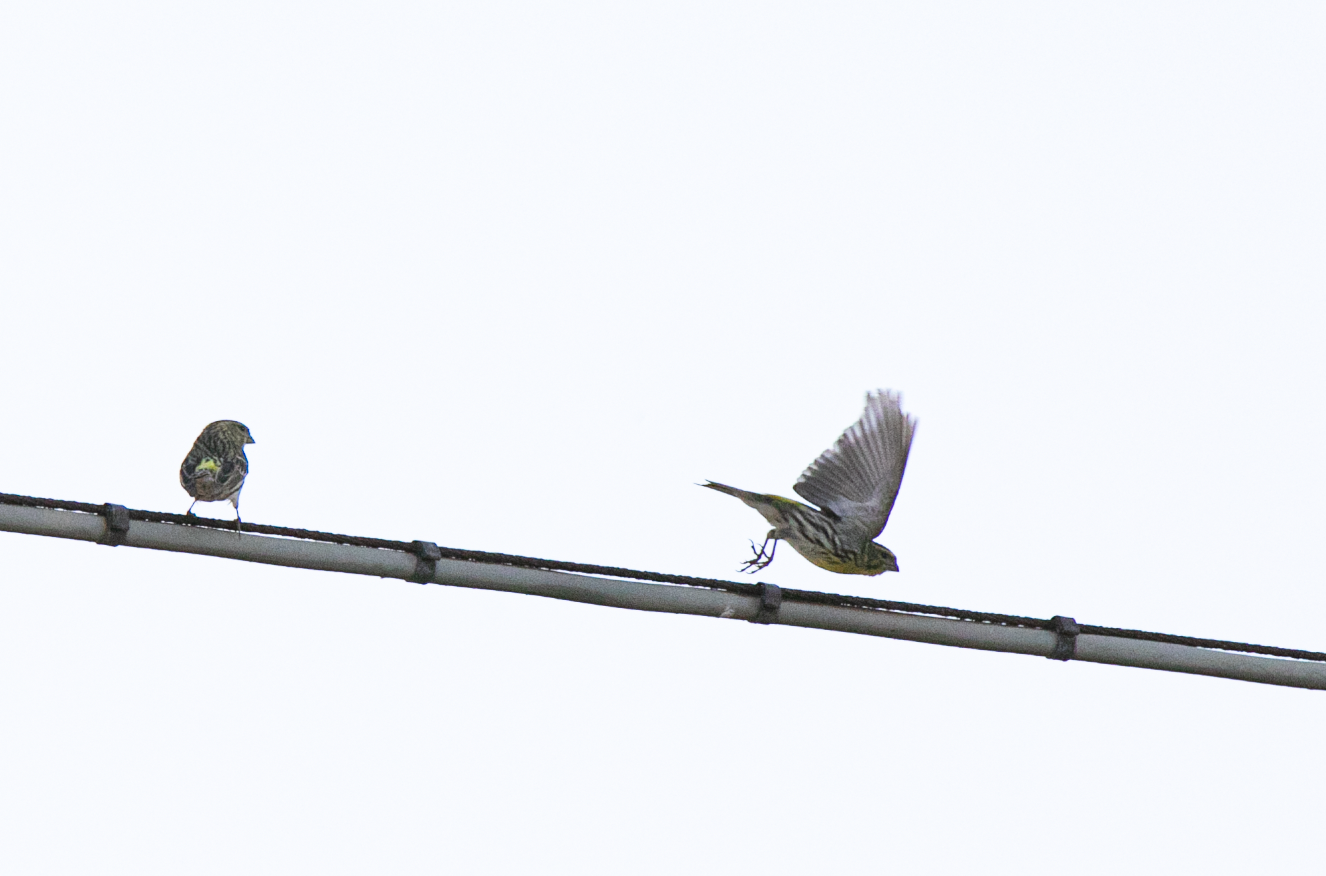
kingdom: Animalia
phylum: Chordata
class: Aves
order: Passeriformes
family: Fringillidae
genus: Serinus
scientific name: Serinus serinus
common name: European serin
